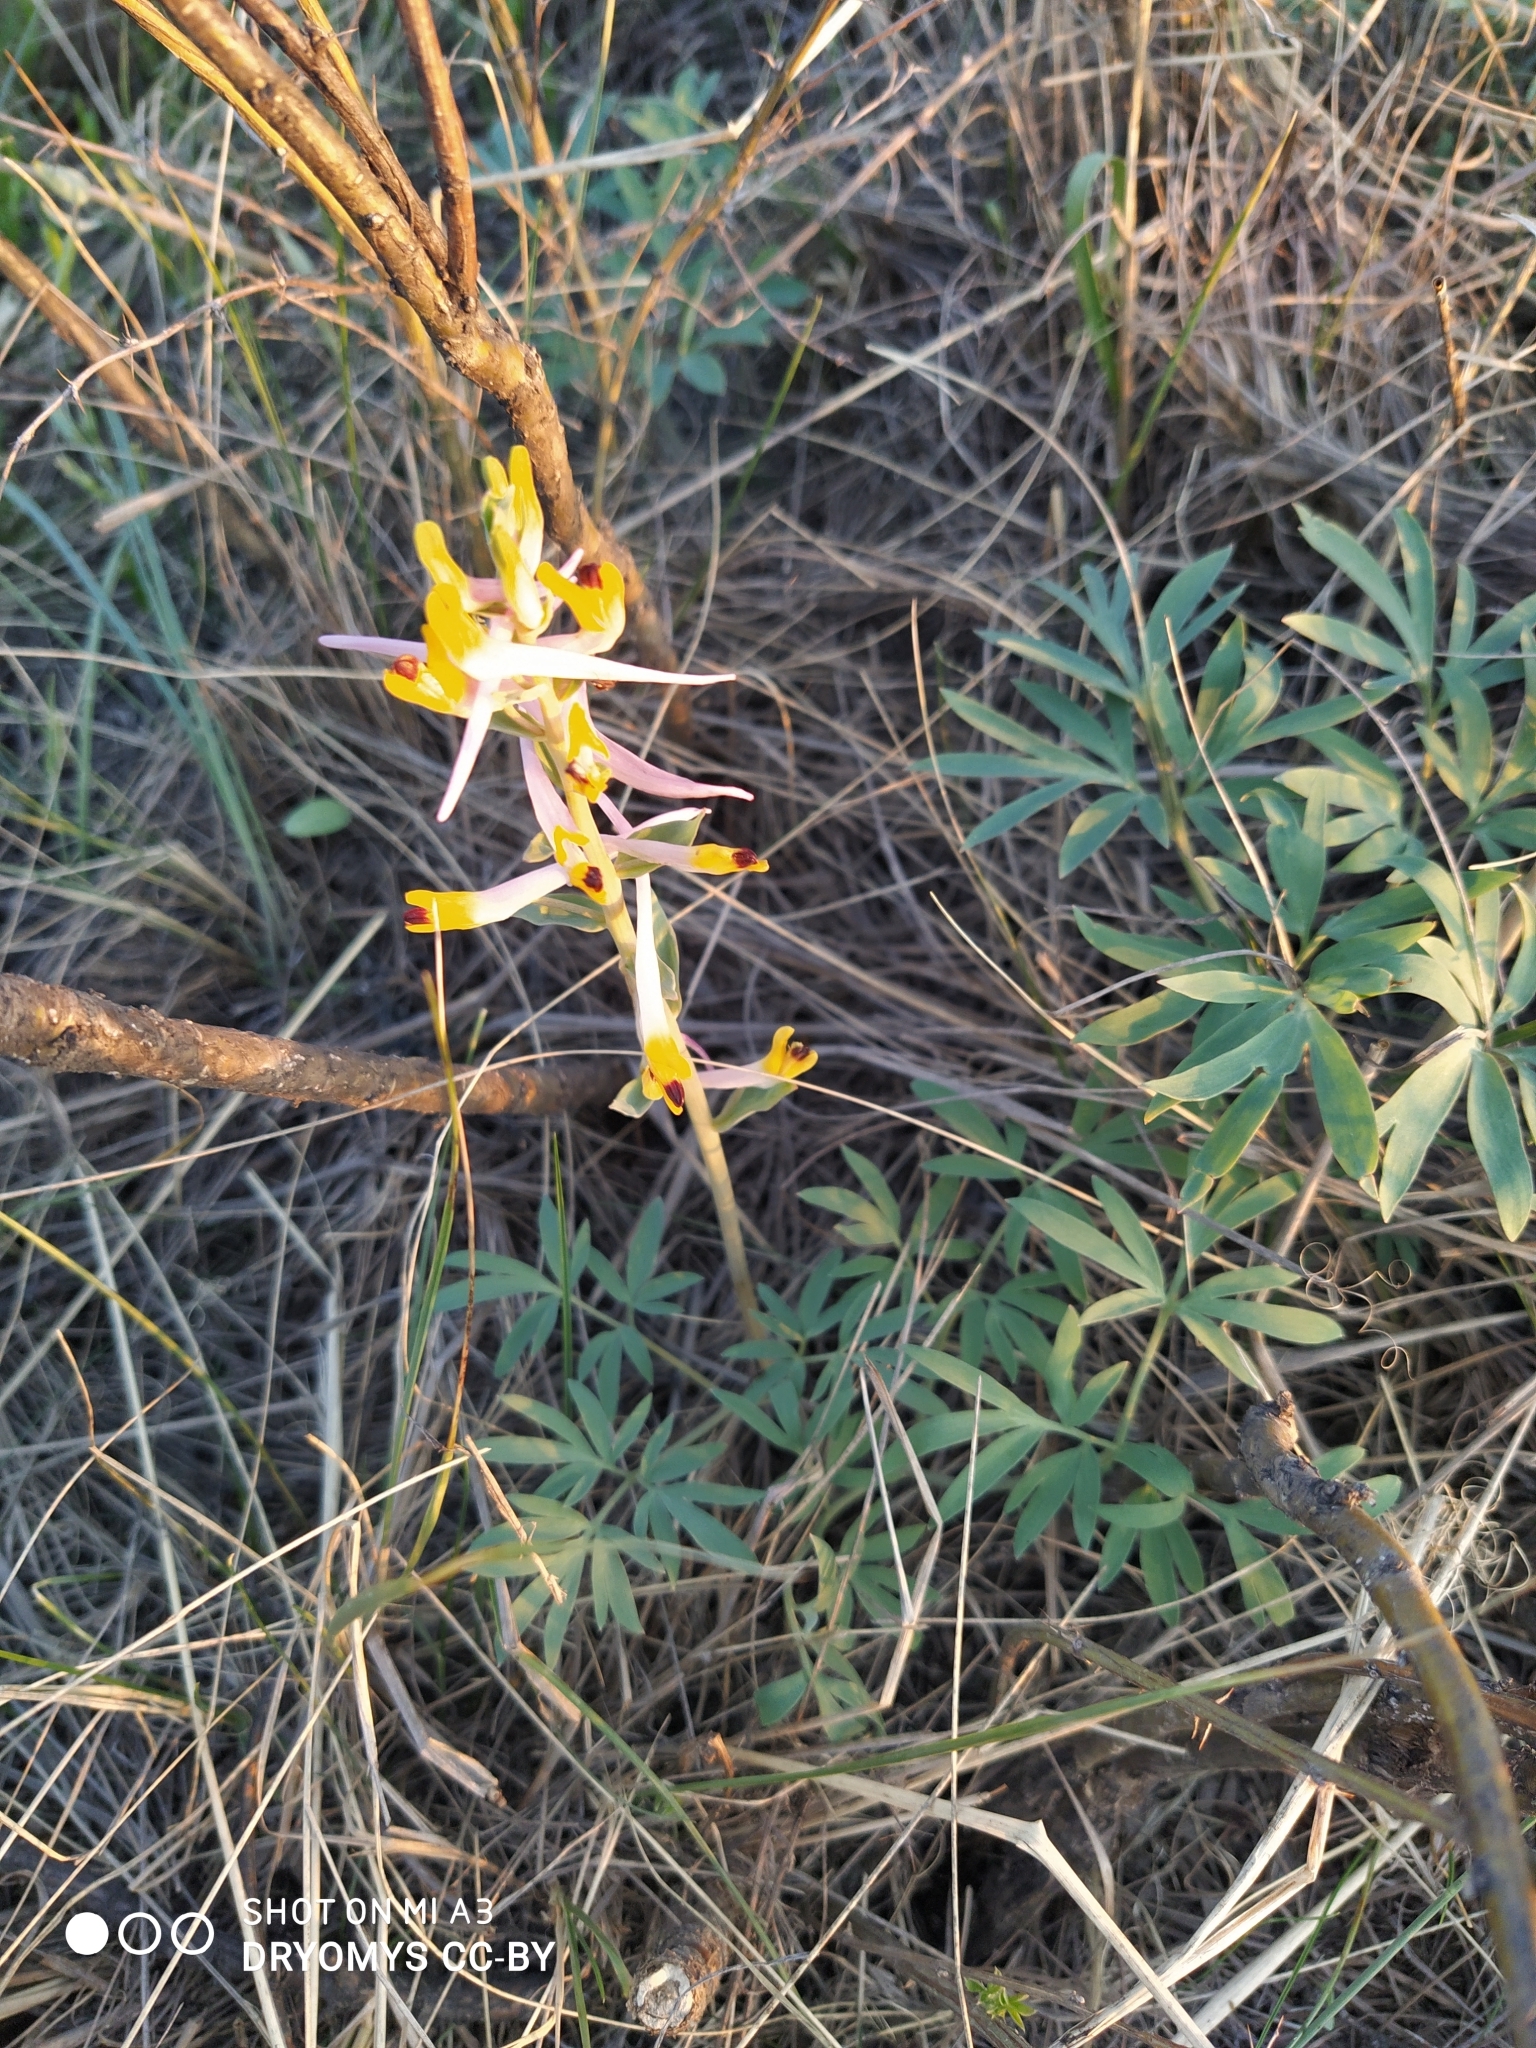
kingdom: Plantae
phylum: Tracheophyta
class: Magnoliopsida
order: Ranunculales
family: Papaveraceae
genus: Corydalis
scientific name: Corydalis schanginii
